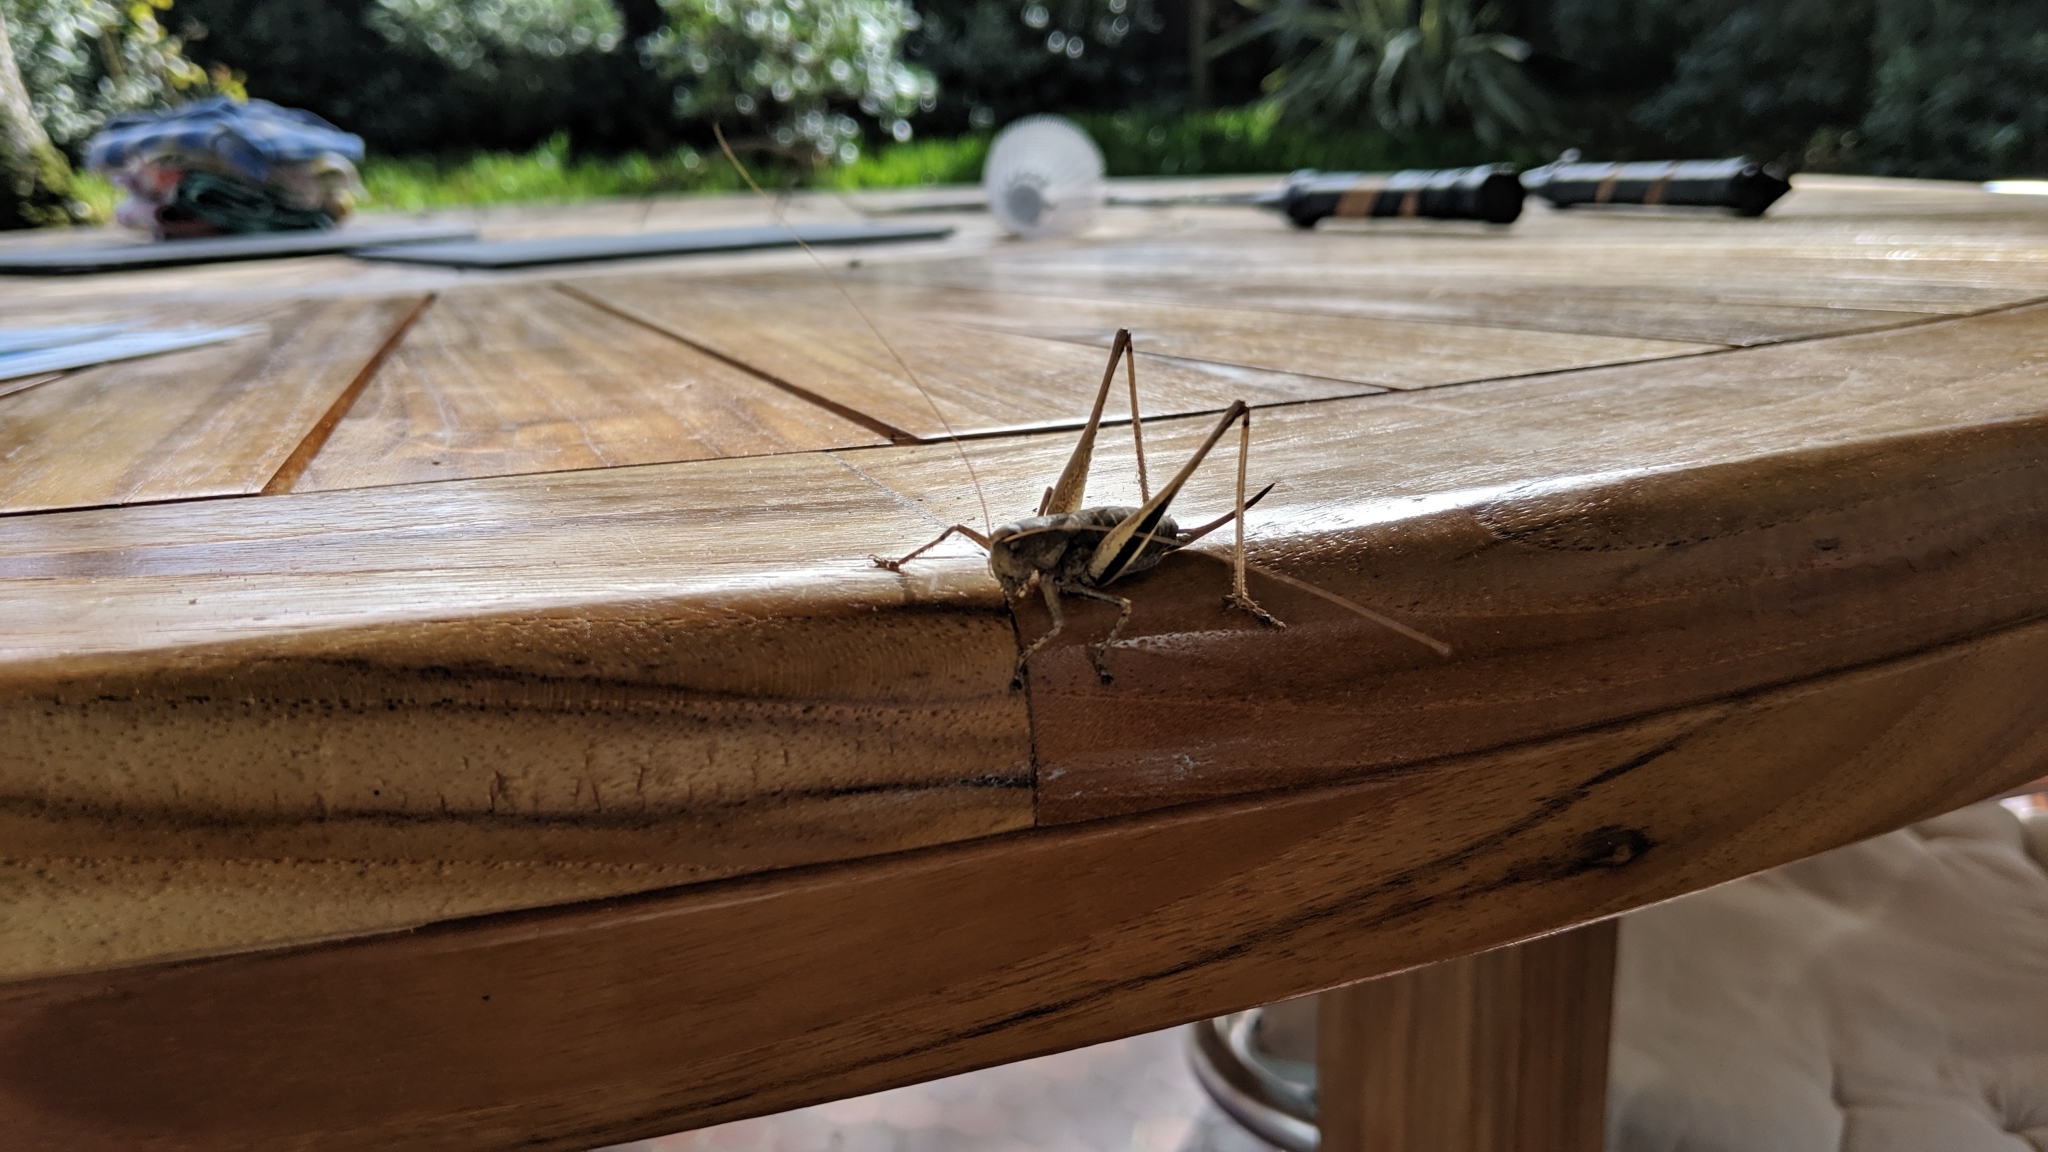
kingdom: Animalia
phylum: Arthropoda
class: Insecta
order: Orthoptera
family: Tettigoniidae
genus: Rhacocleis
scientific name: Rhacocleis poneli
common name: Ponel's bush-cricket
